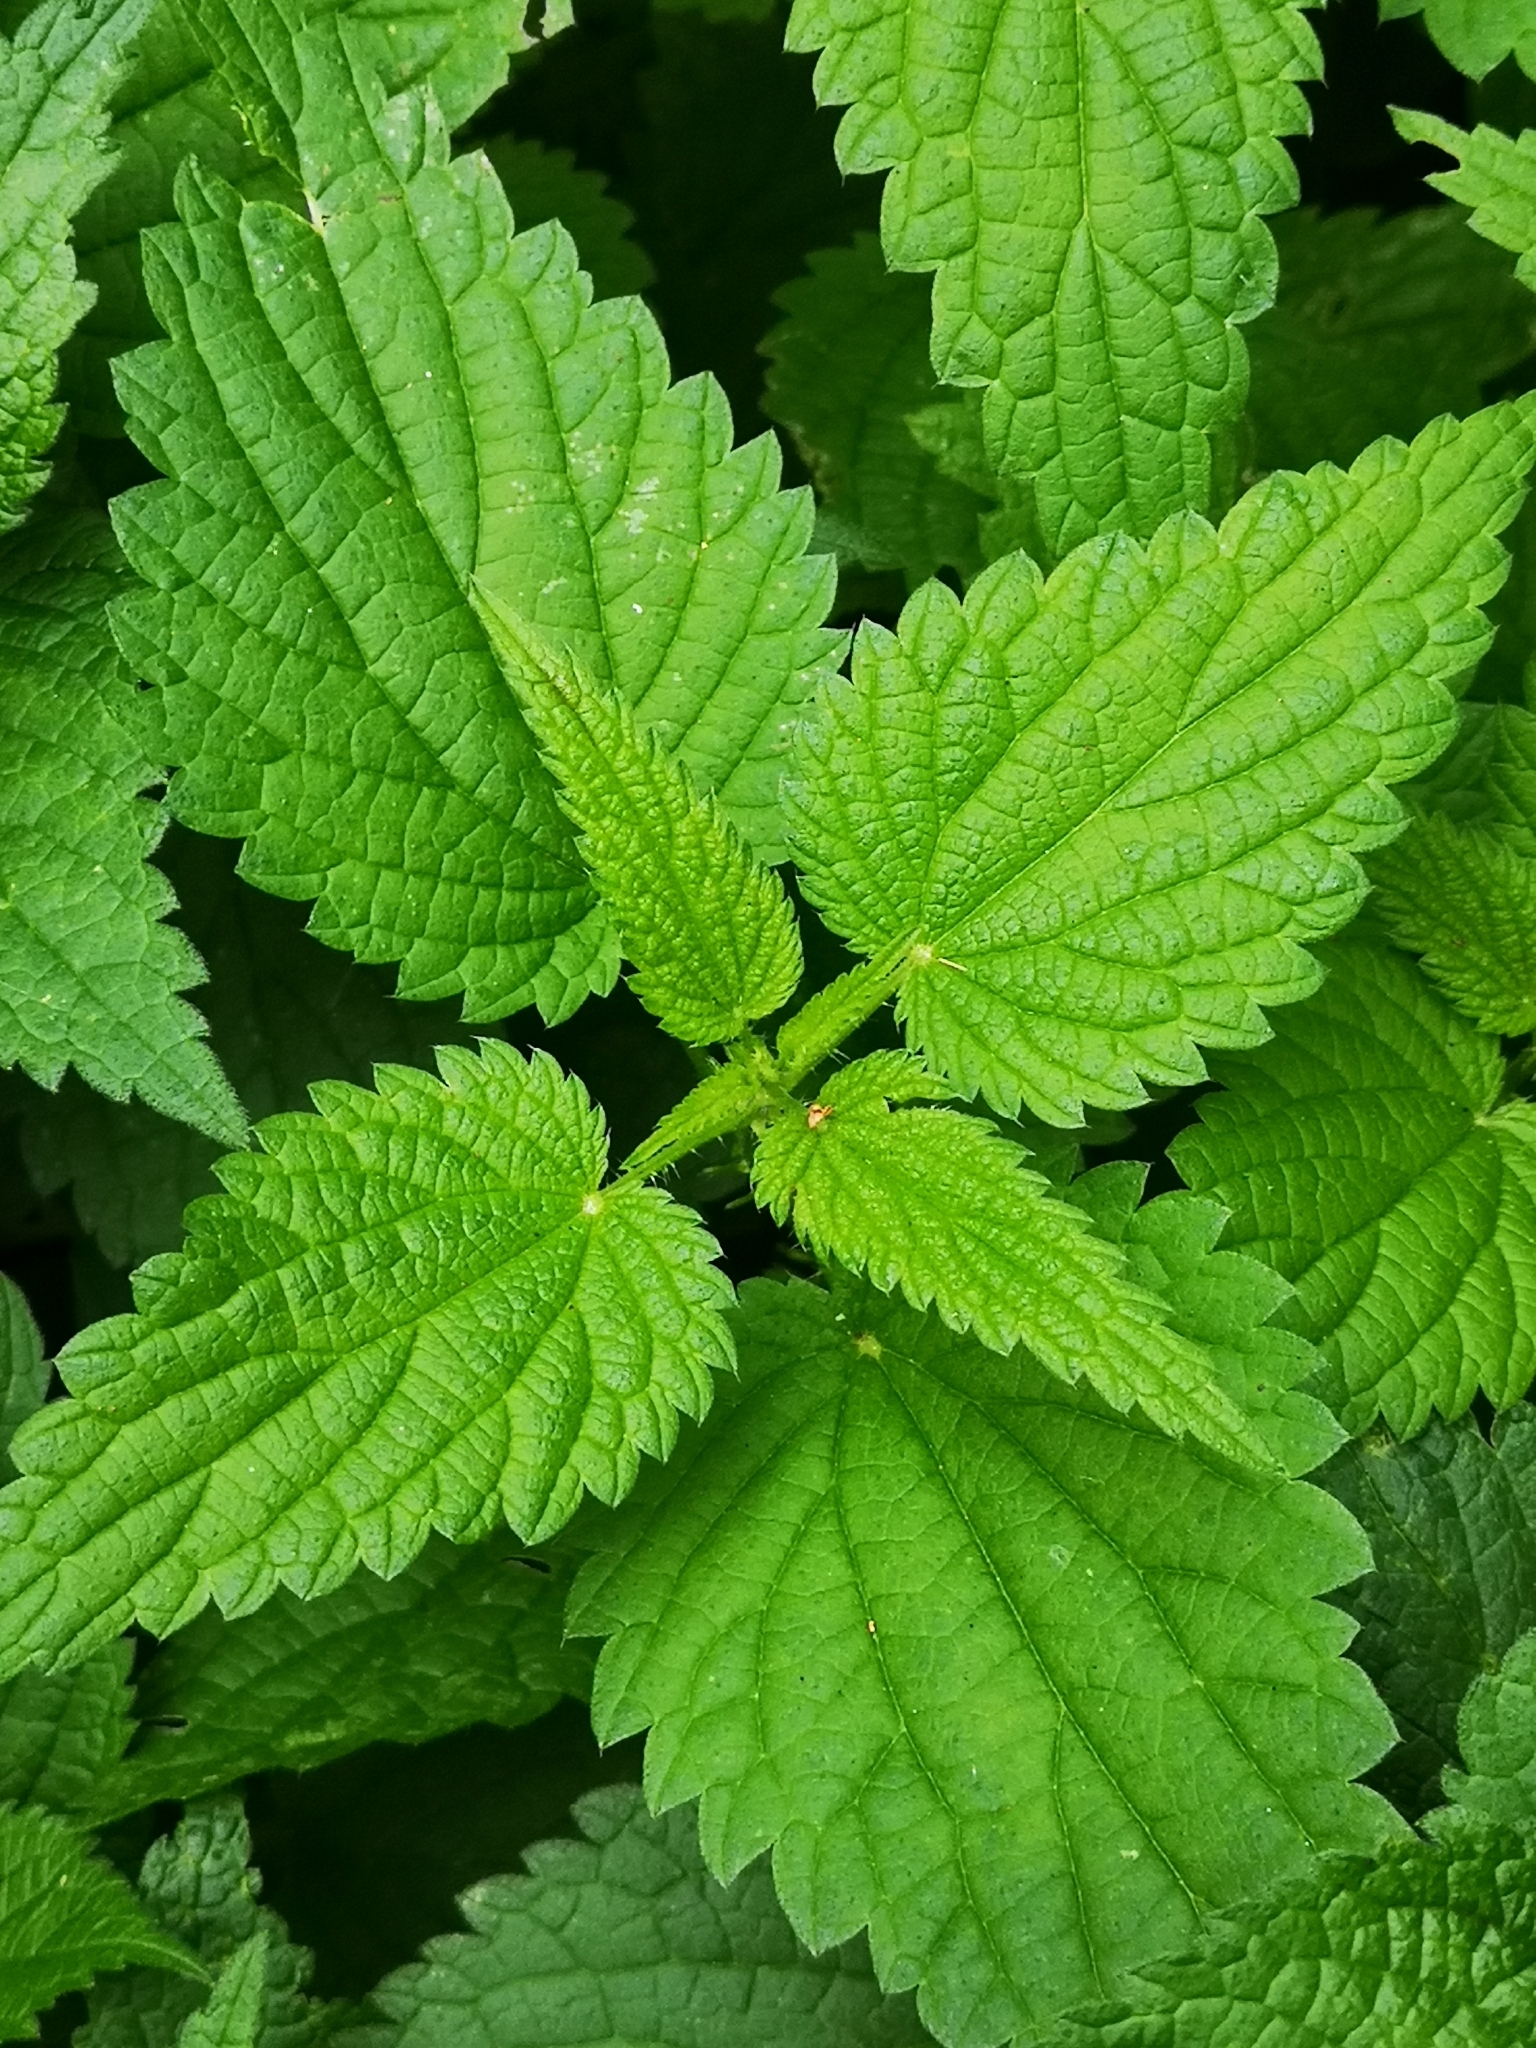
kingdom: Plantae
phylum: Tracheophyta
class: Magnoliopsida
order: Rosales
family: Urticaceae
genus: Urtica
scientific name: Urtica dioica
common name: Common nettle
